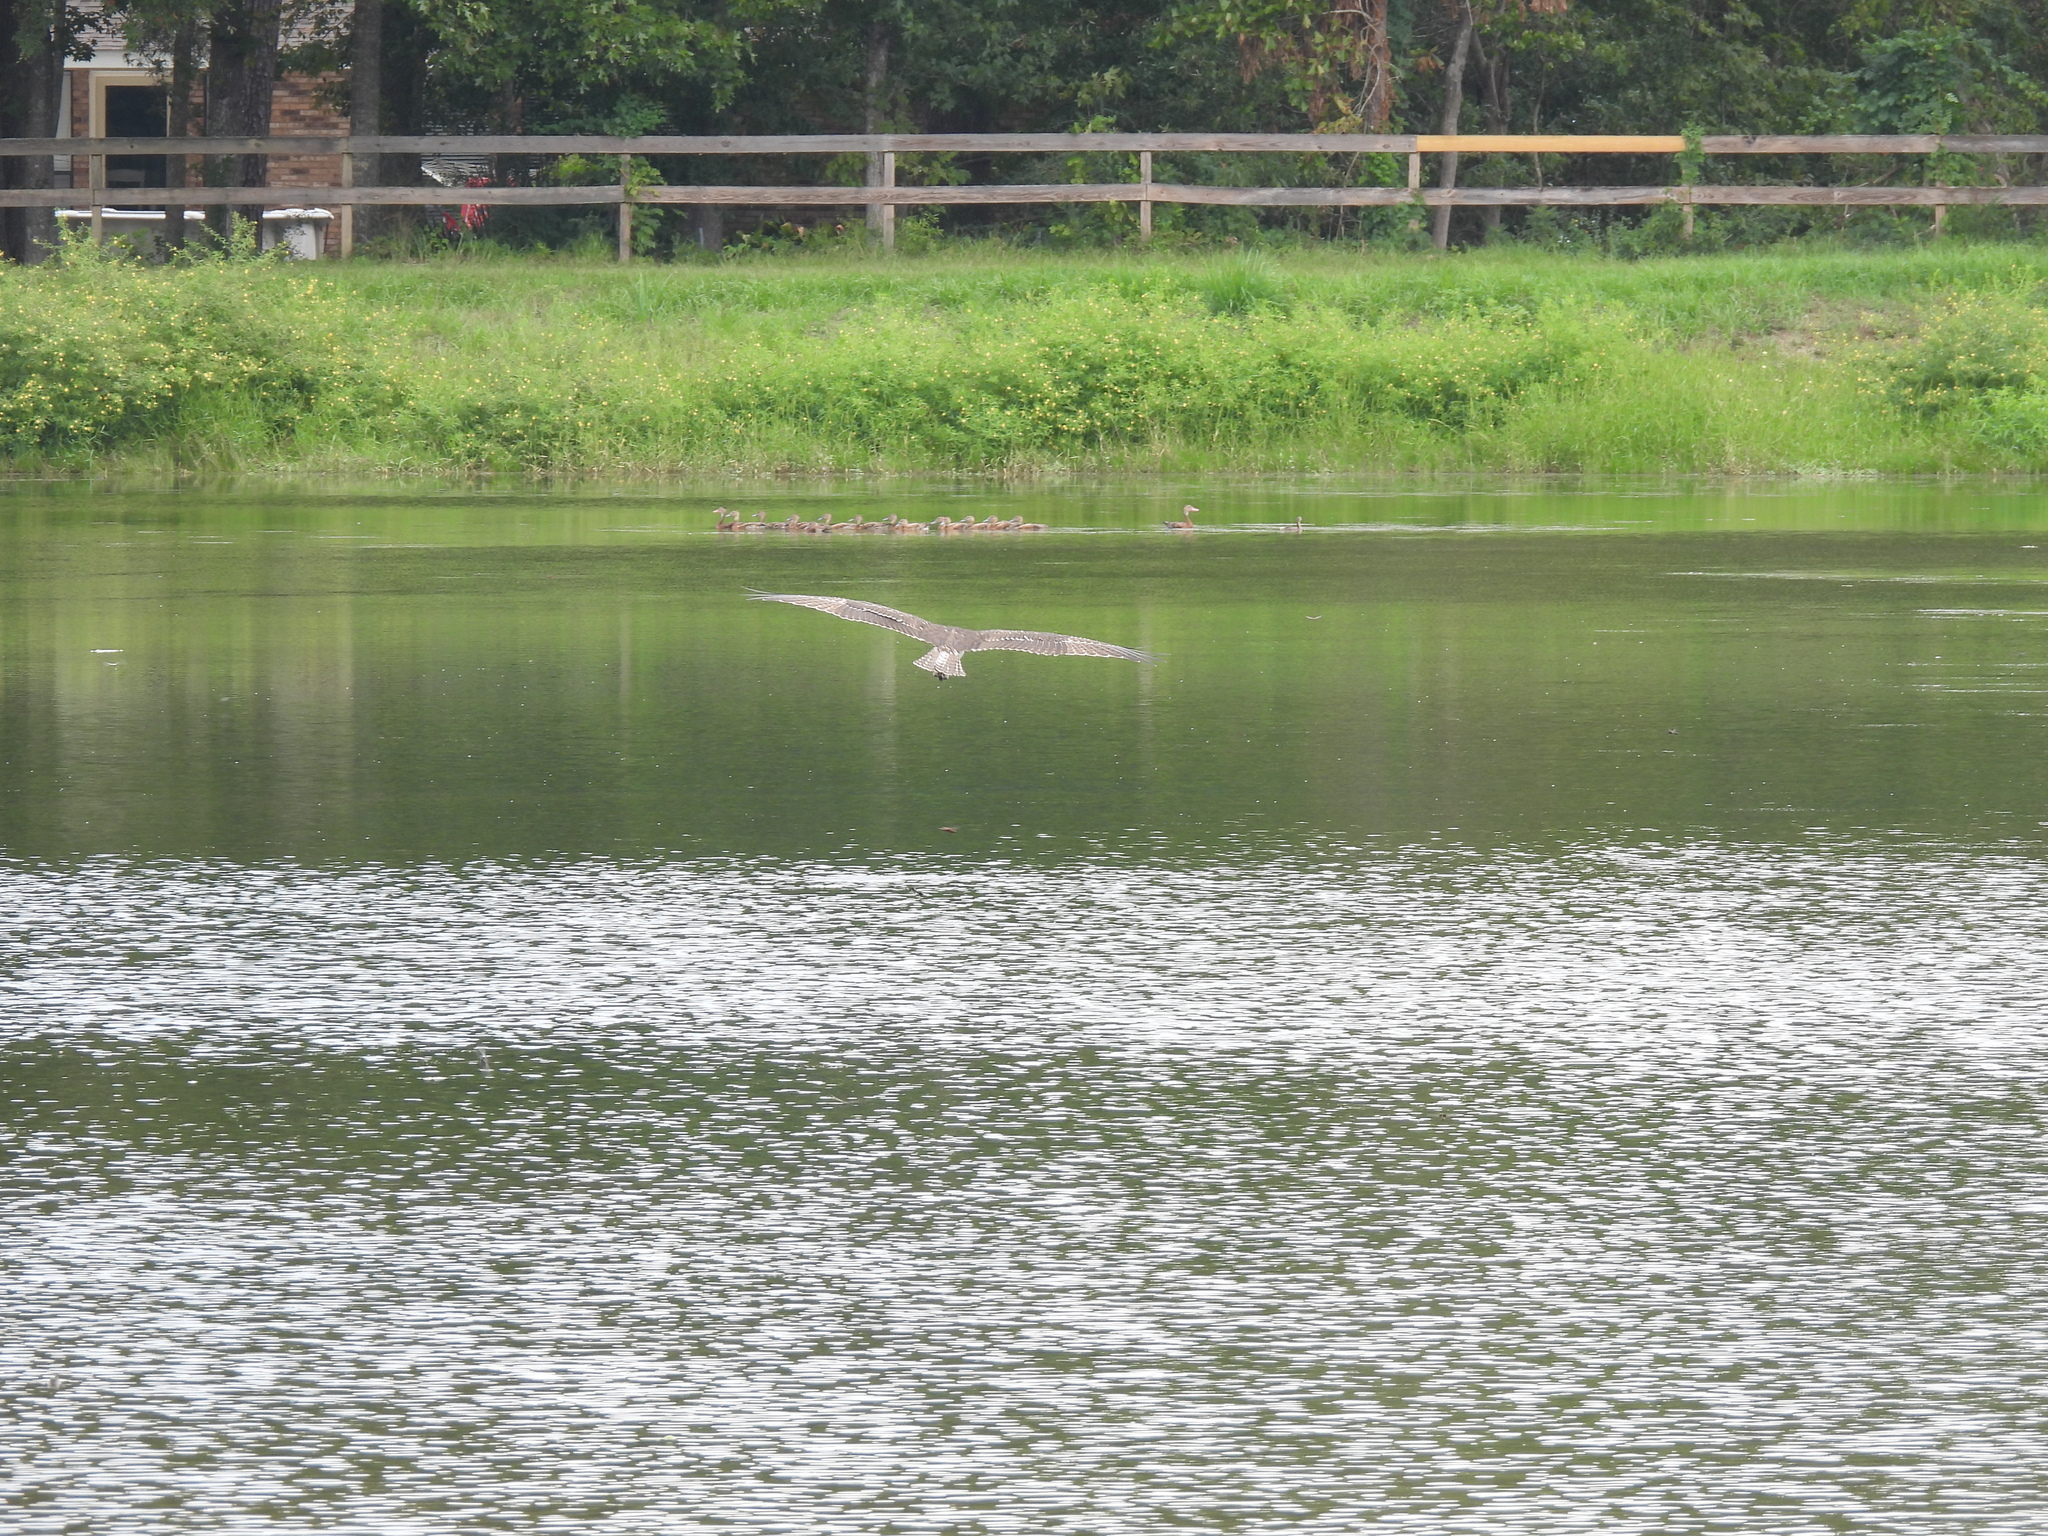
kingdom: Animalia
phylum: Chordata
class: Aves
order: Accipitriformes
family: Pandionidae
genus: Pandion
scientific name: Pandion haliaetus
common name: Osprey
